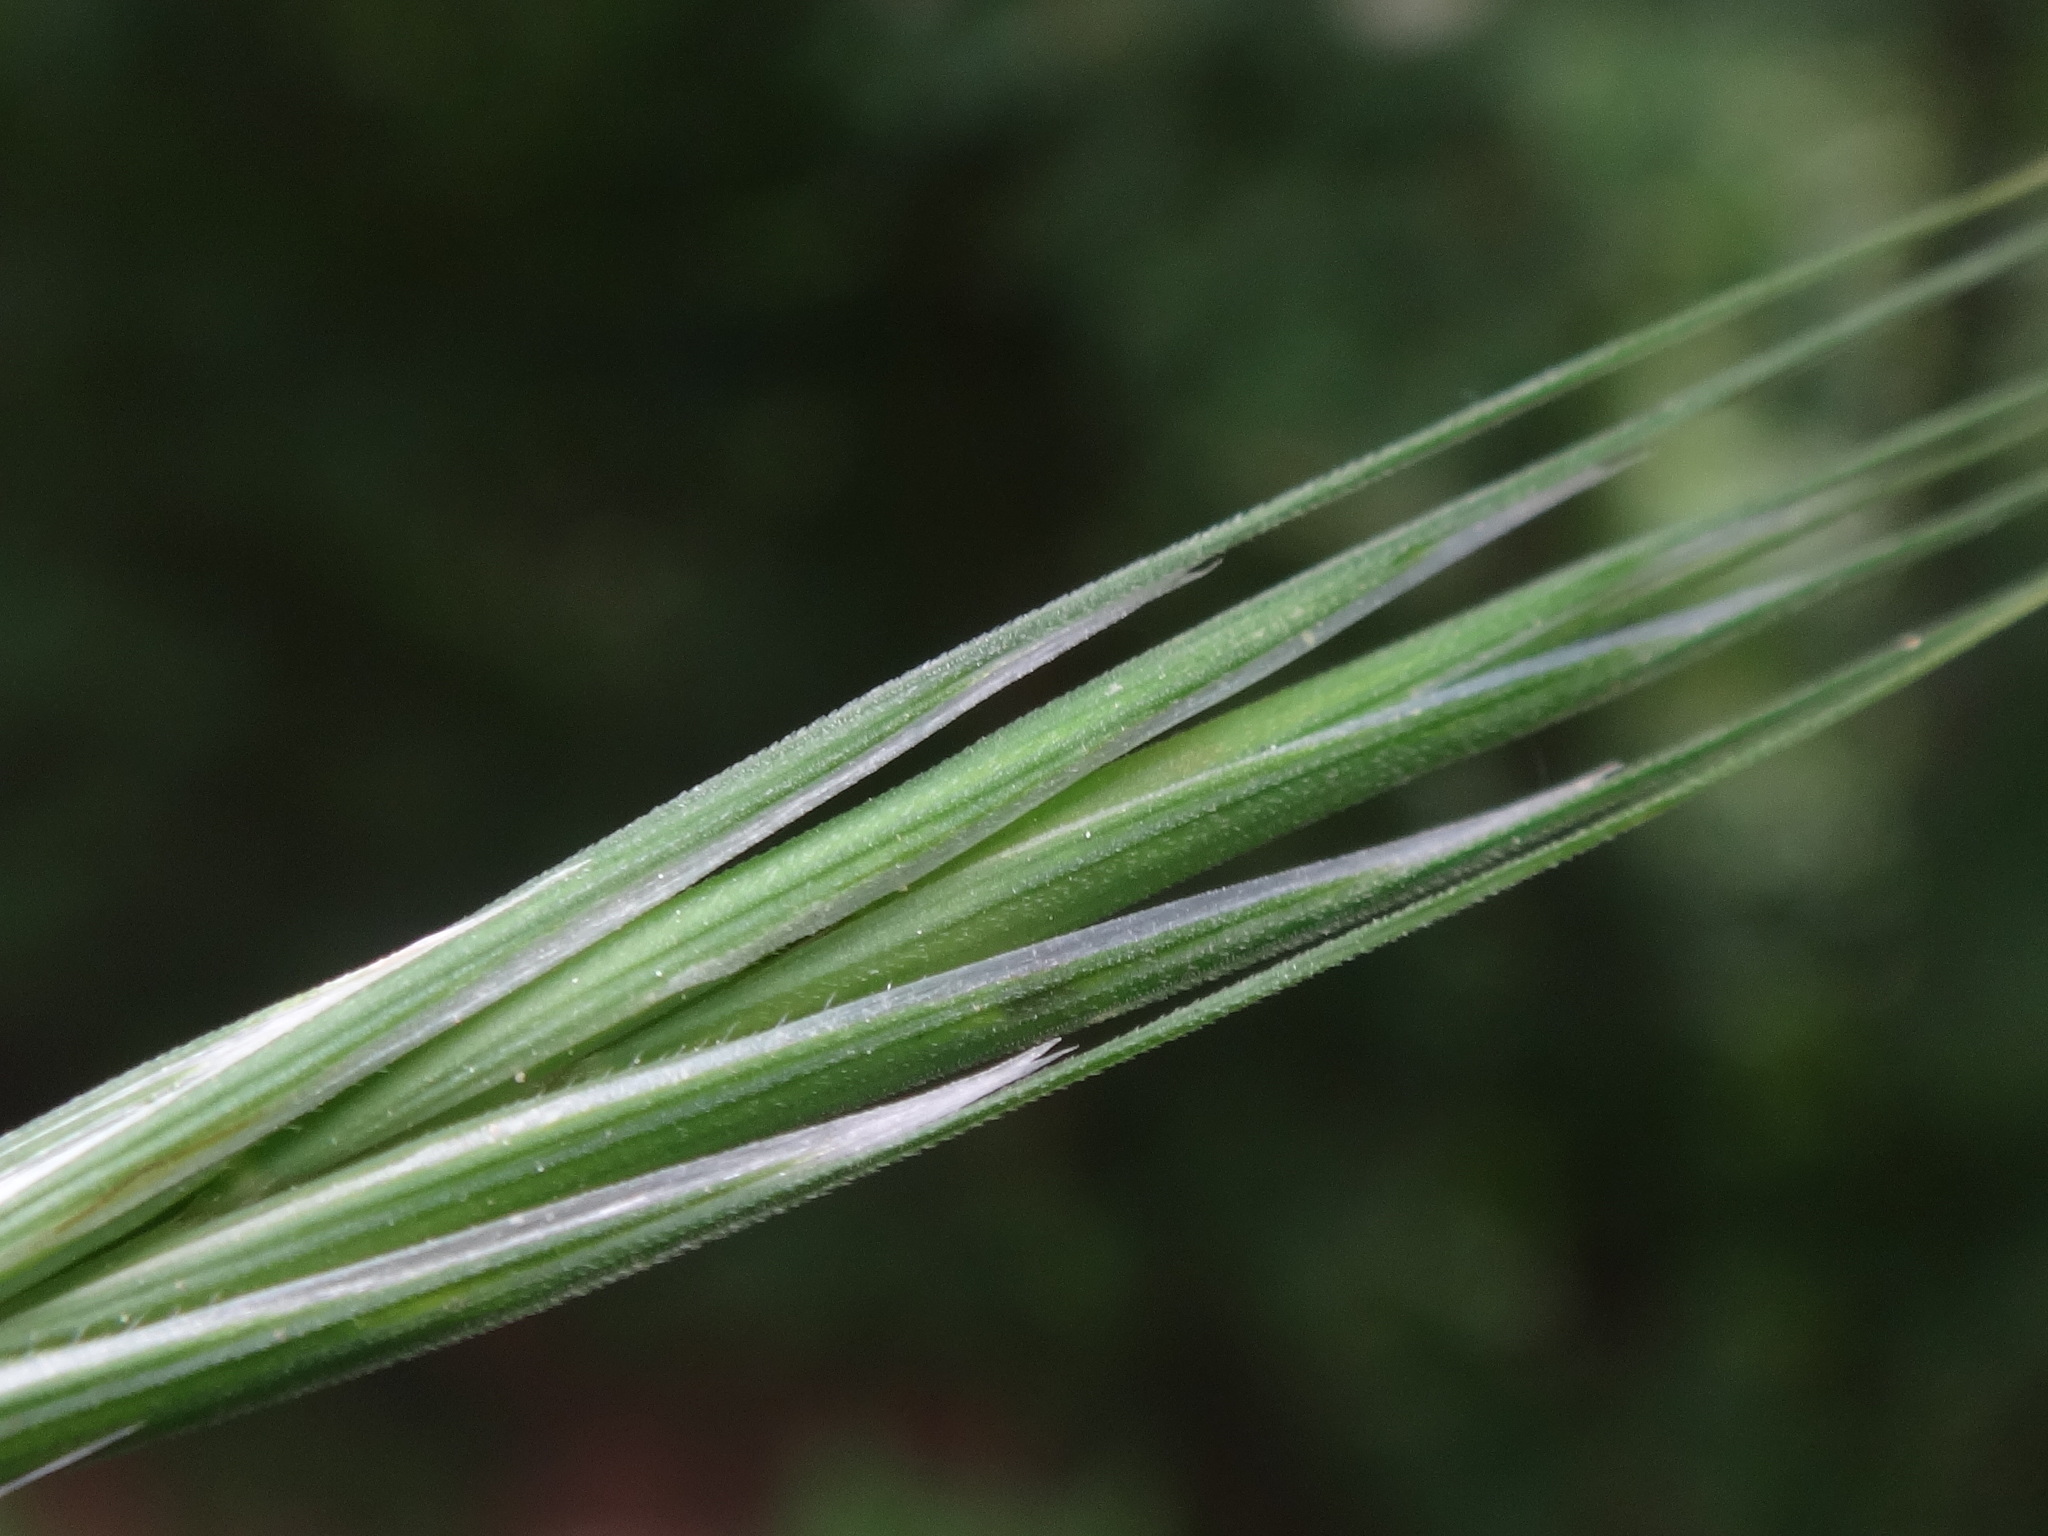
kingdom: Plantae
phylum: Tracheophyta
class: Liliopsida
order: Poales
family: Poaceae
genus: Bromus
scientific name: Bromus sterilis
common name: Poverty brome
